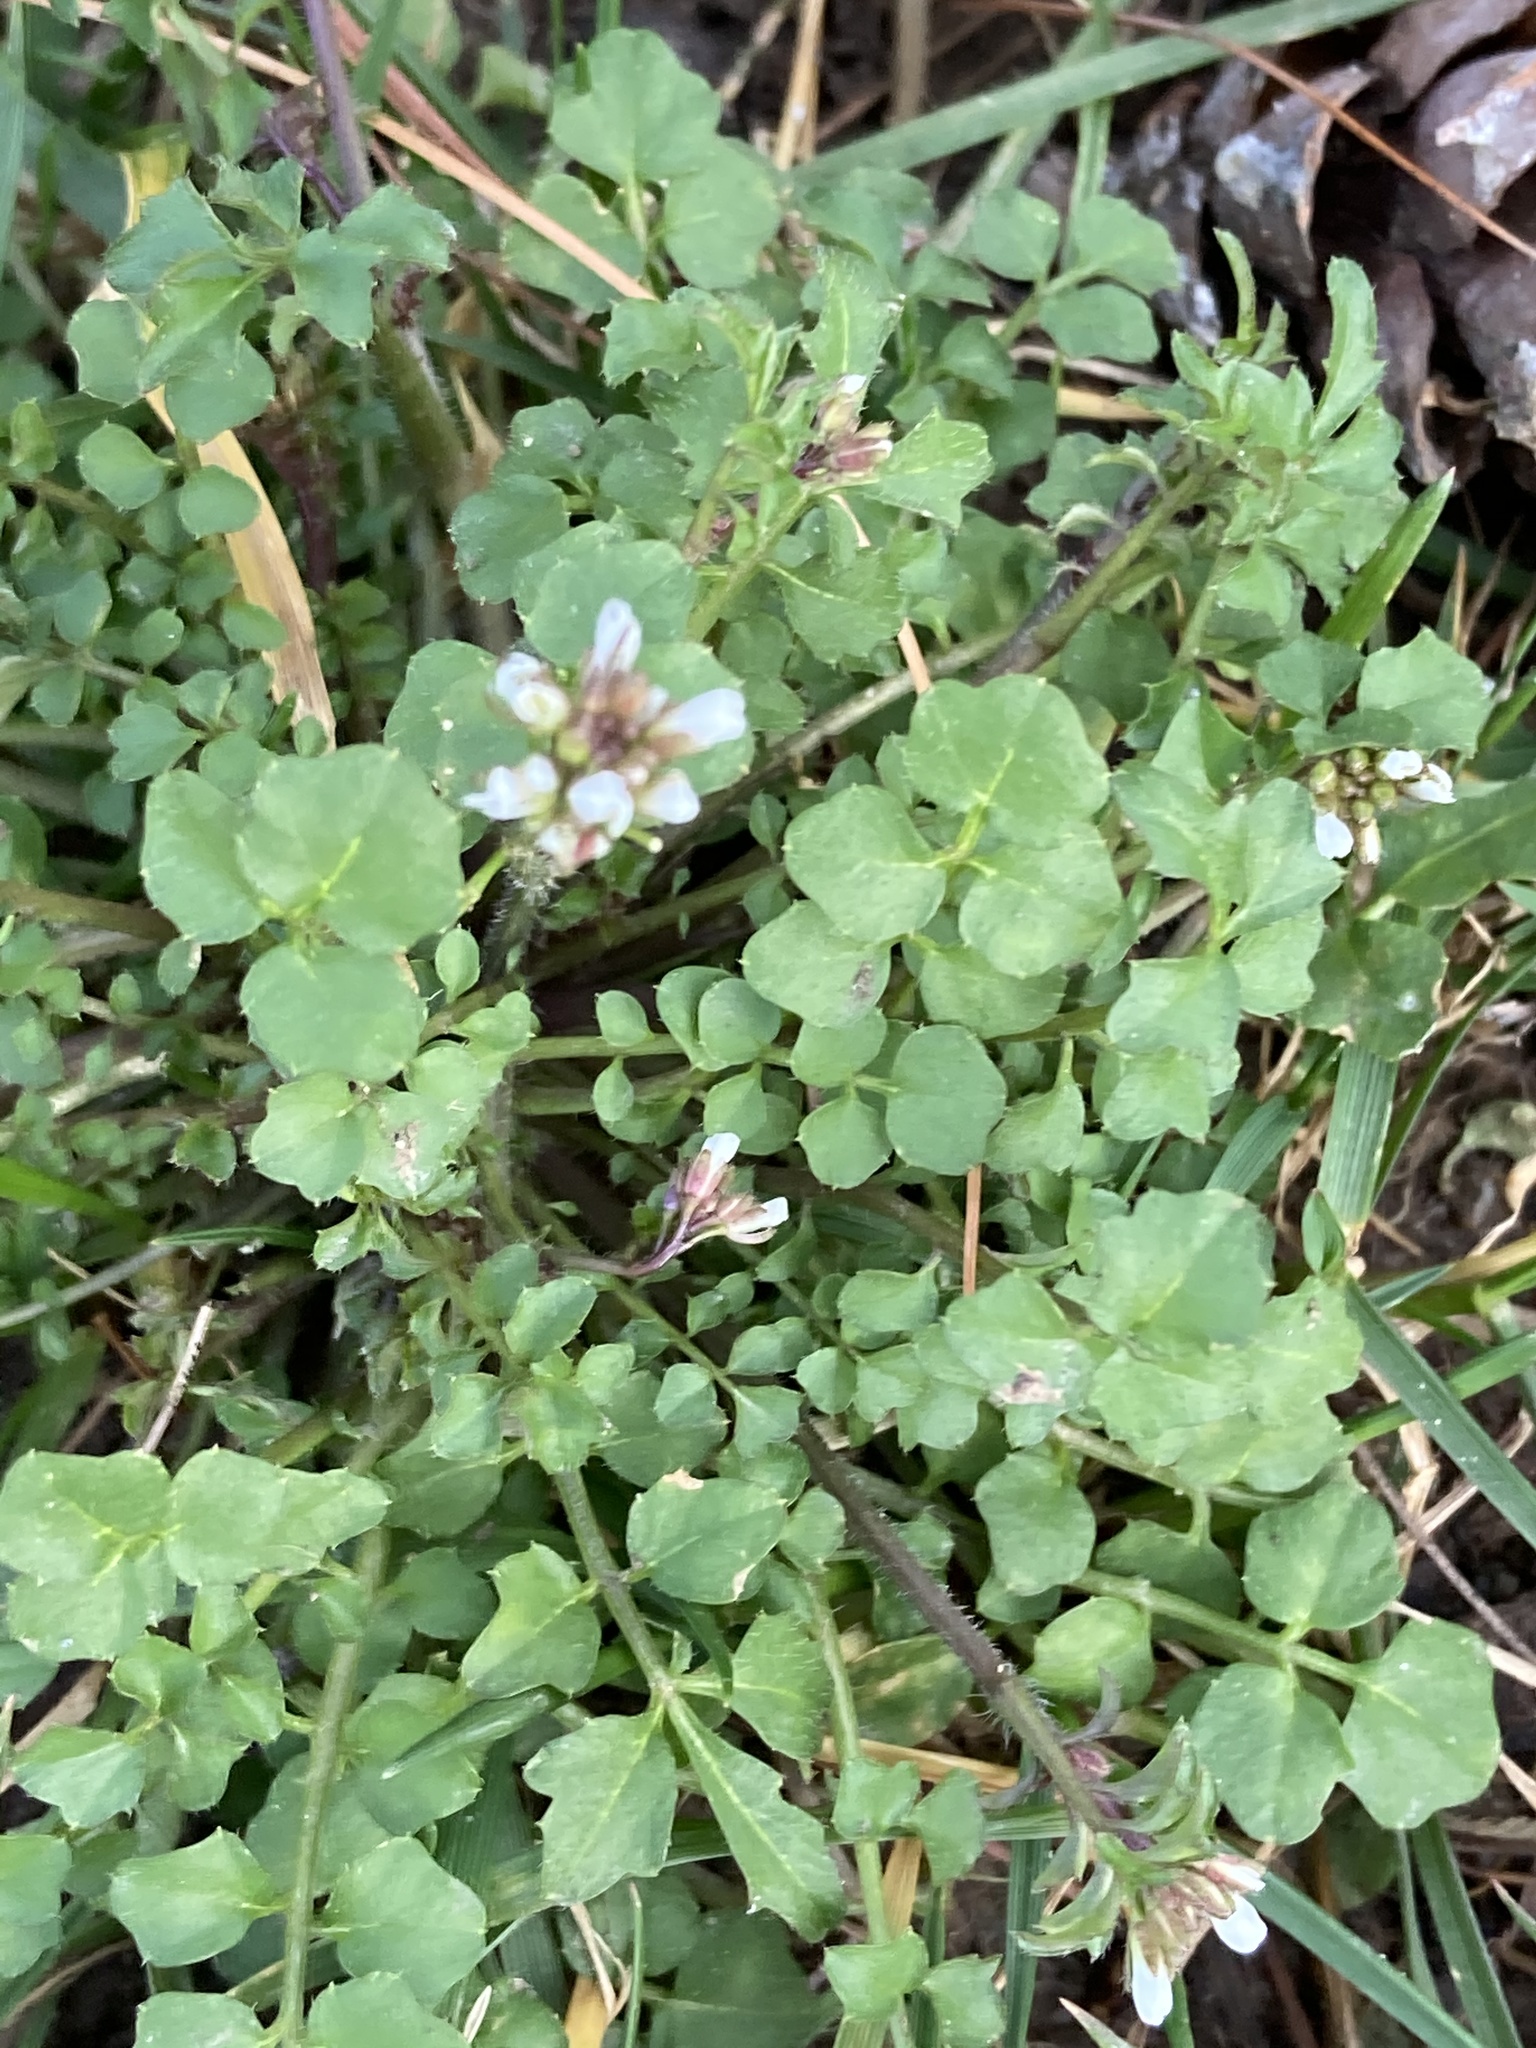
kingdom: Plantae
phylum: Tracheophyta
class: Magnoliopsida
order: Brassicales
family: Brassicaceae
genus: Cardamine
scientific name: Cardamine hirsuta
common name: Hairy bittercress
